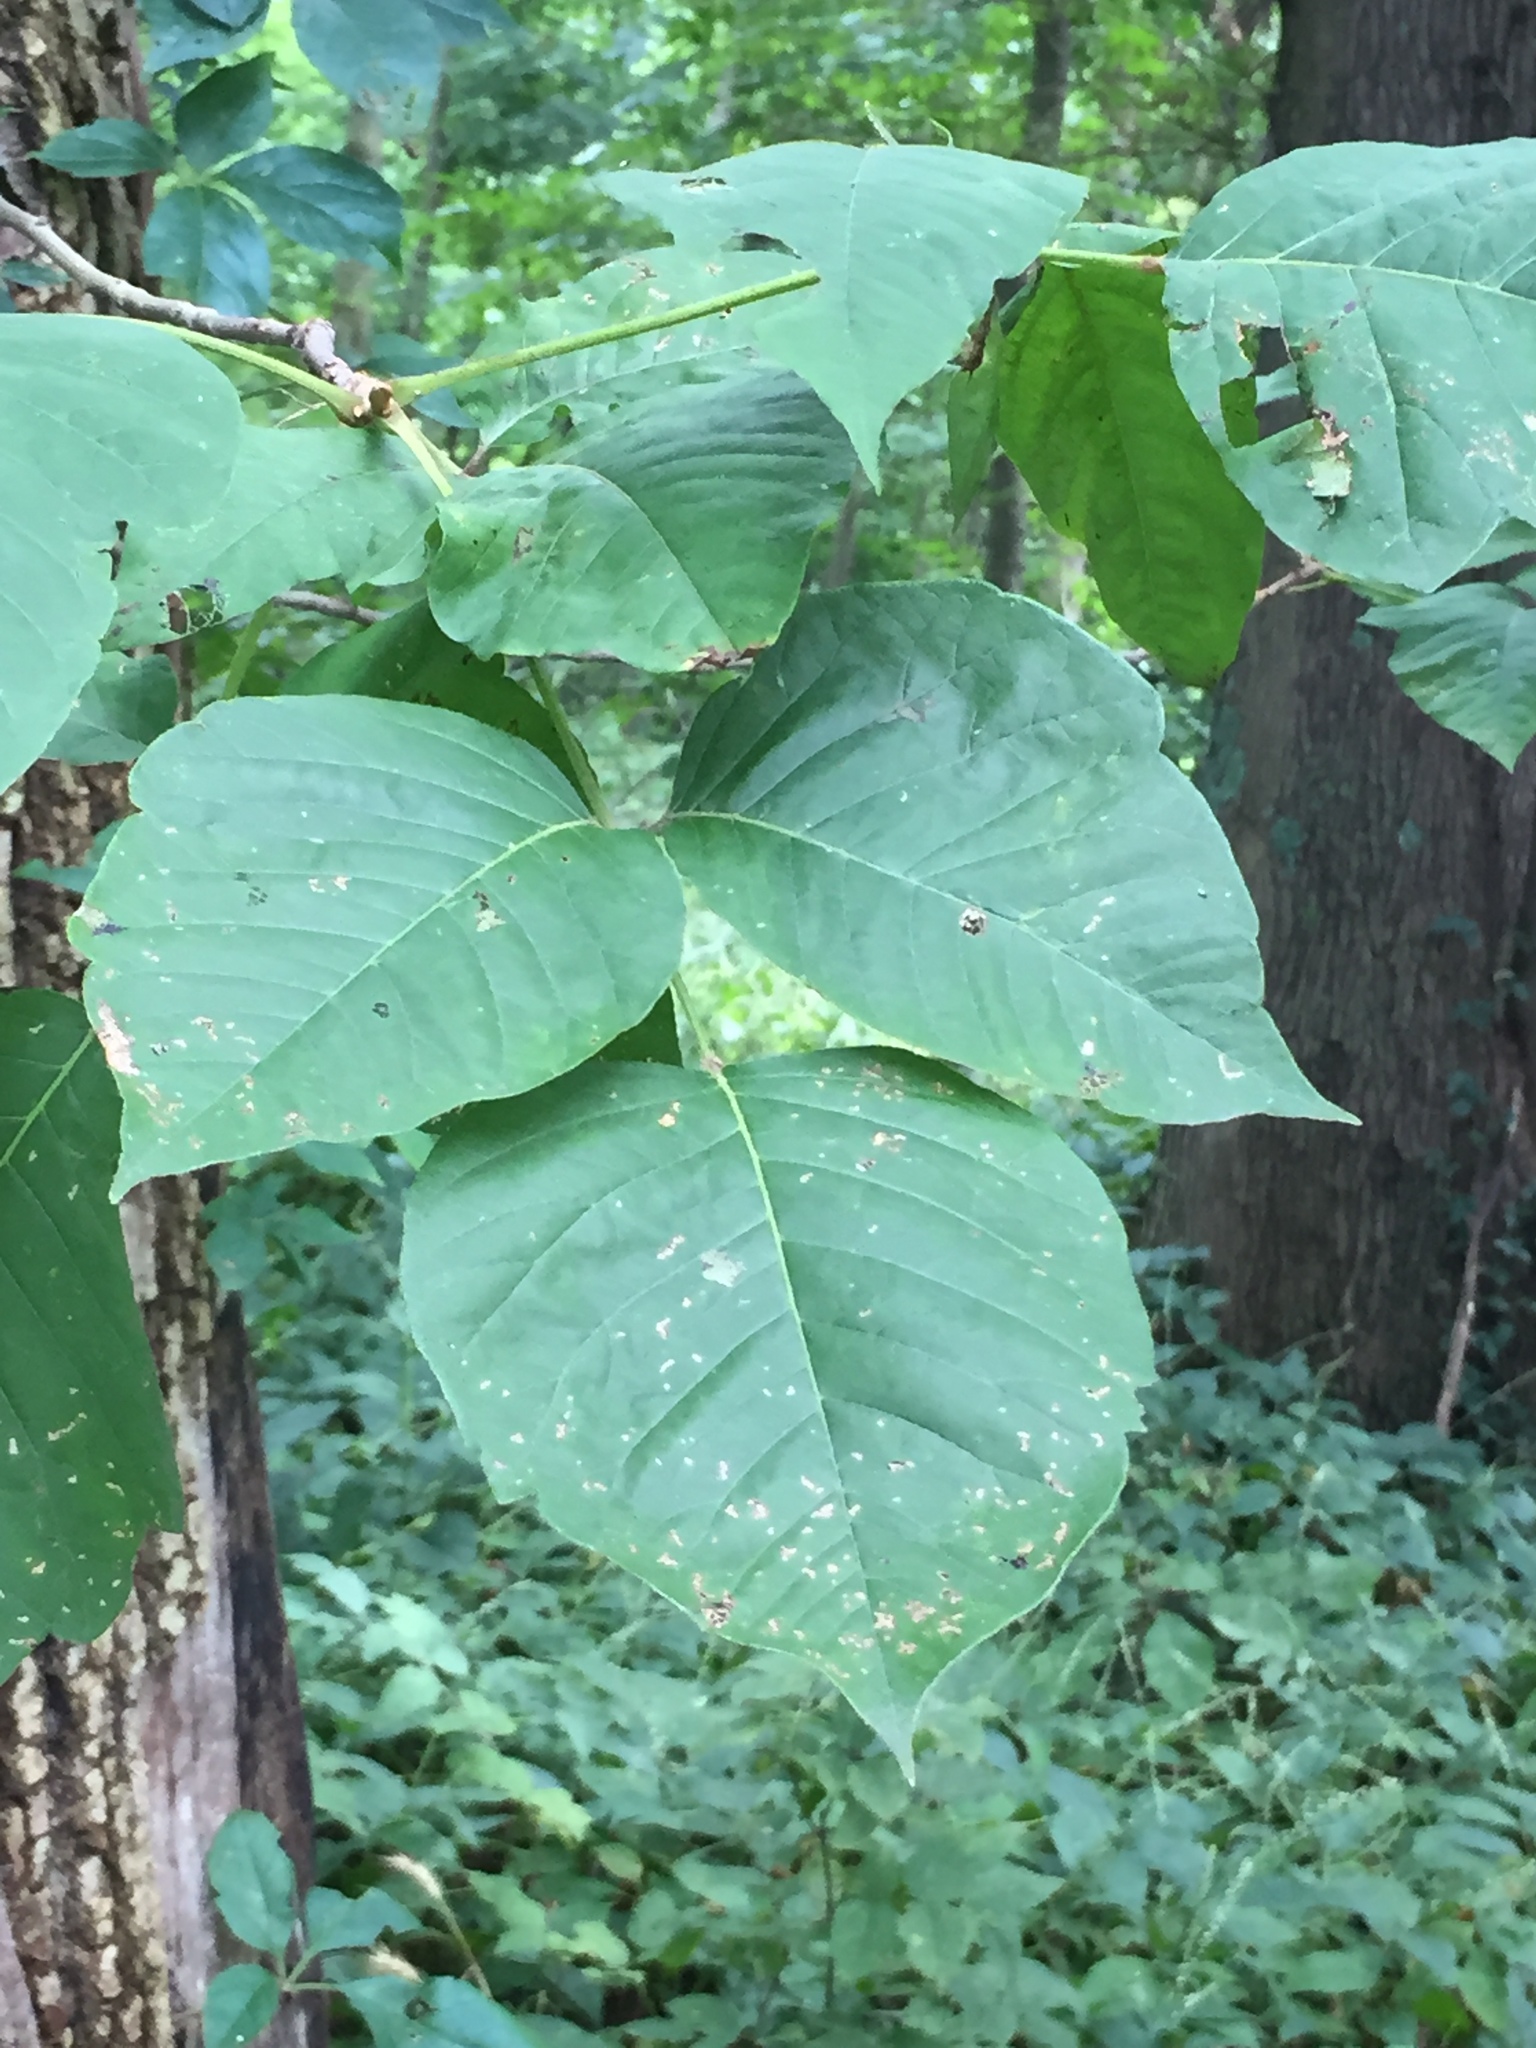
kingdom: Plantae
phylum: Tracheophyta
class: Magnoliopsida
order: Sapindales
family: Anacardiaceae
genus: Toxicodendron
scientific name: Toxicodendron radicans
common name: Poison ivy
